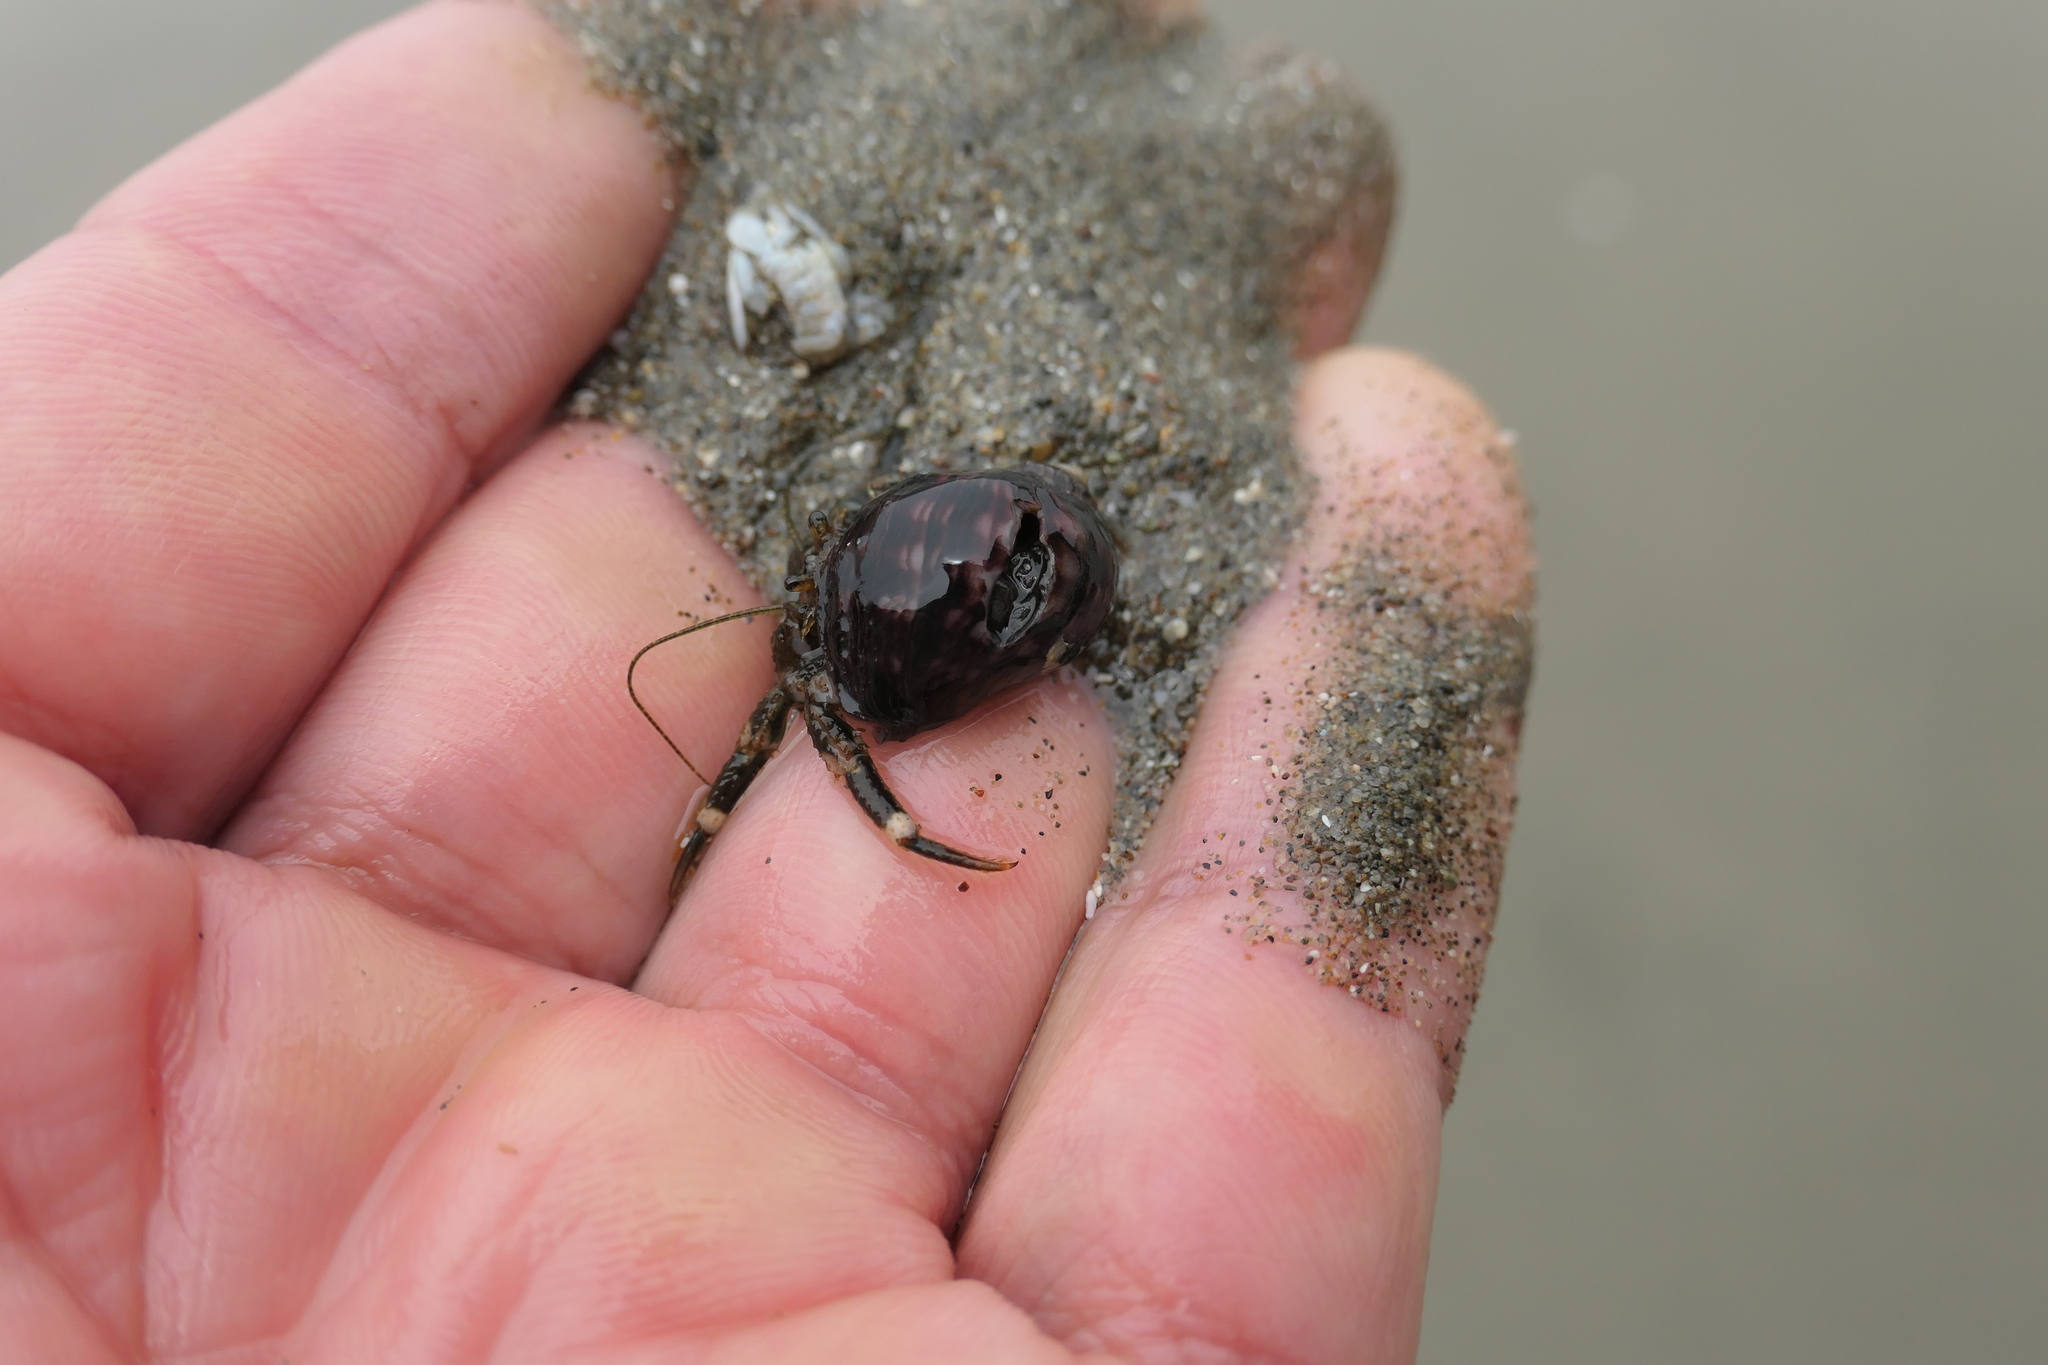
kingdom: Animalia
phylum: Arthropoda
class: Malacostraca
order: Decapoda
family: Paguridae
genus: Pagurus
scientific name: Pagurus hirsutiusculus
